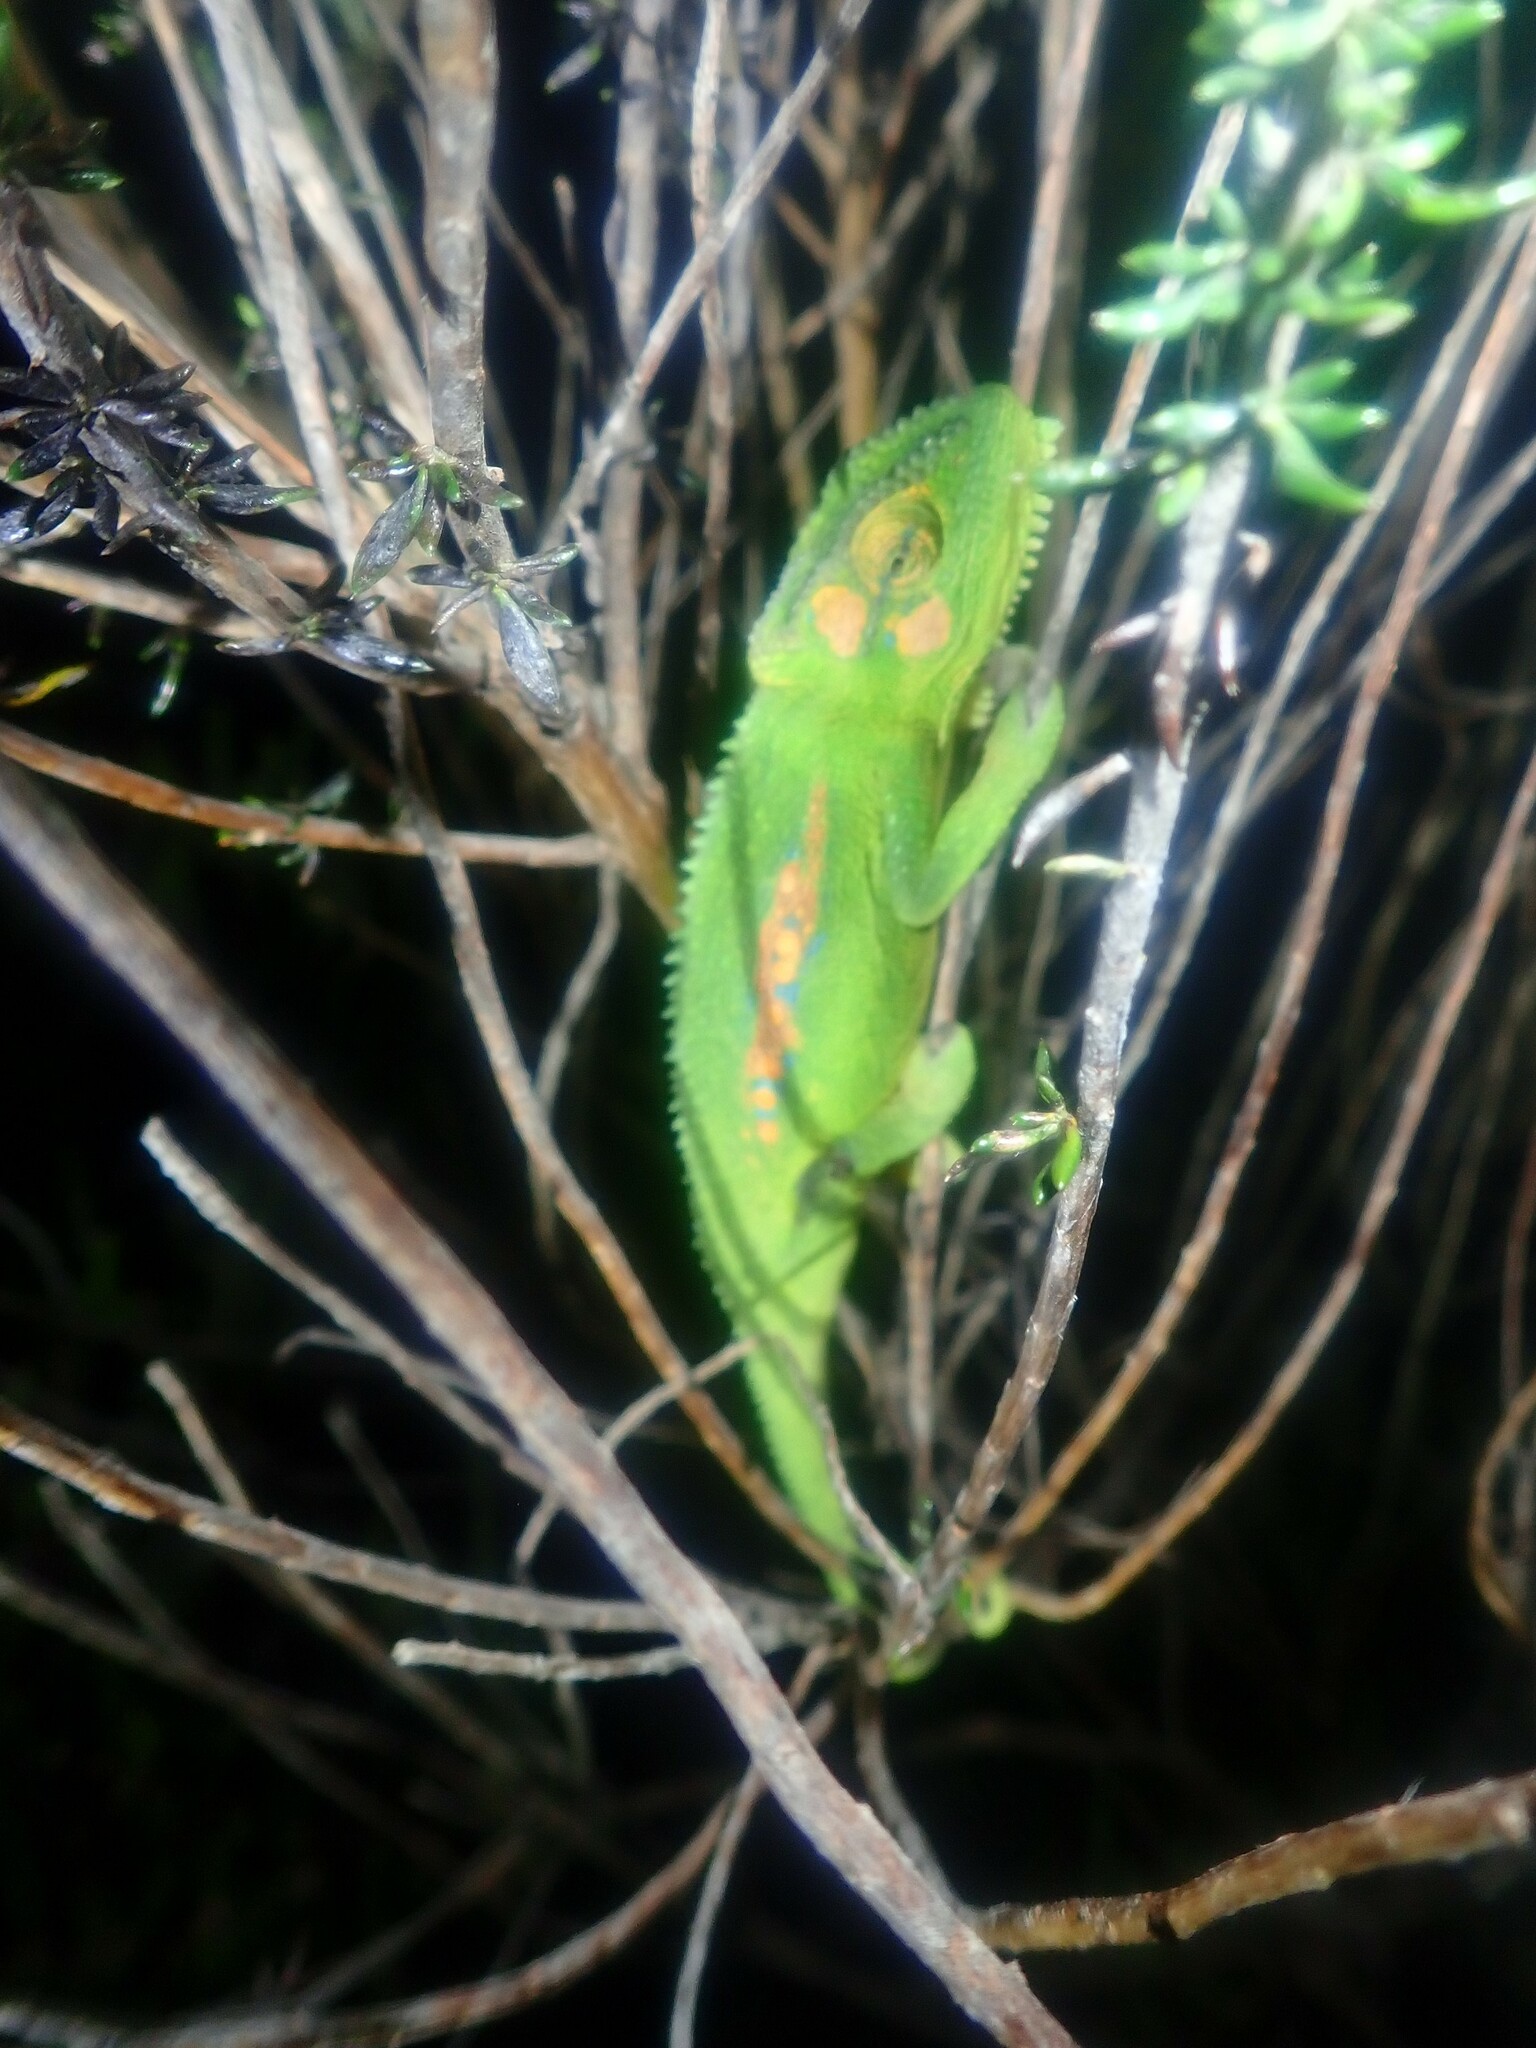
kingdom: Animalia
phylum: Chordata
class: Squamata
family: Chamaeleonidae
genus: Bradypodion
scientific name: Bradypodion pumilum
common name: Cape dwarf chameleon
